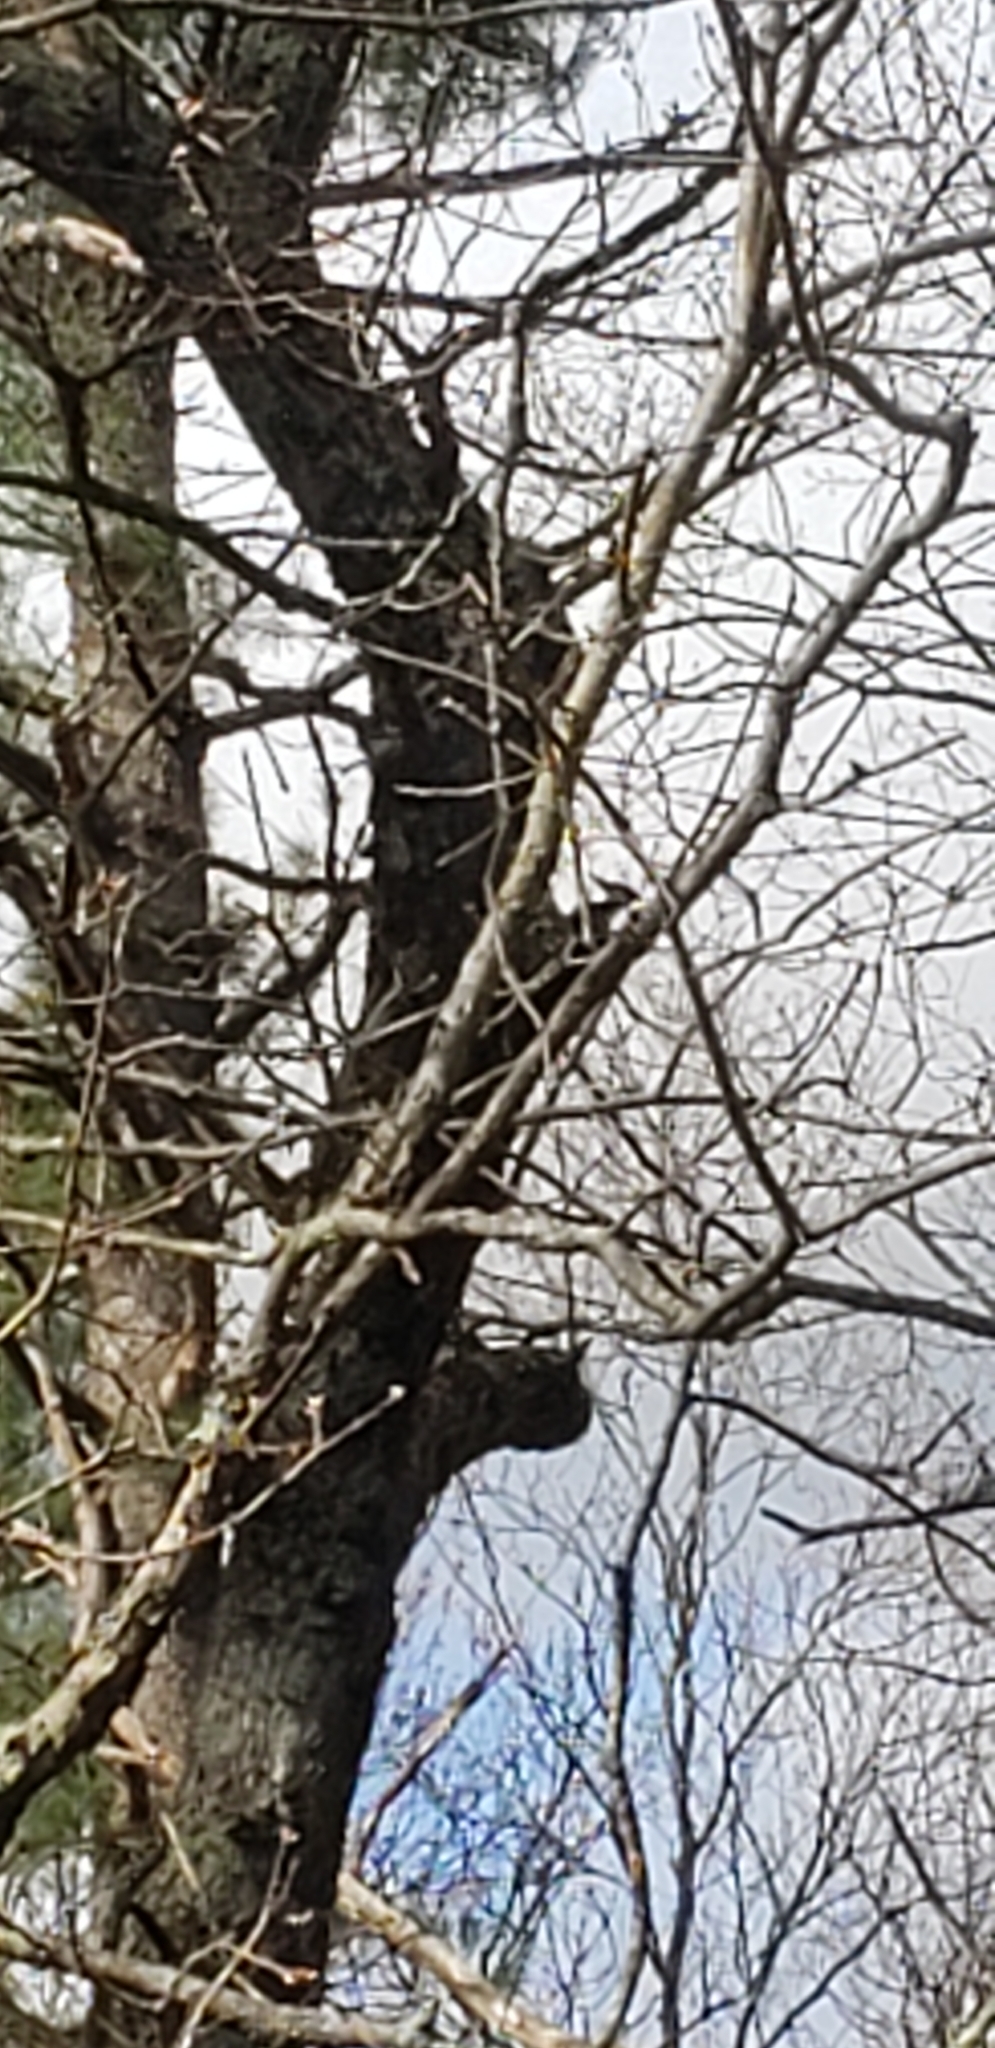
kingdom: Animalia
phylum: Chordata
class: Aves
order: Piciformes
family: Picidae
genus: Dryocopus
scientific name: Dryocopus pileatus
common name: Pileated woodpecker
